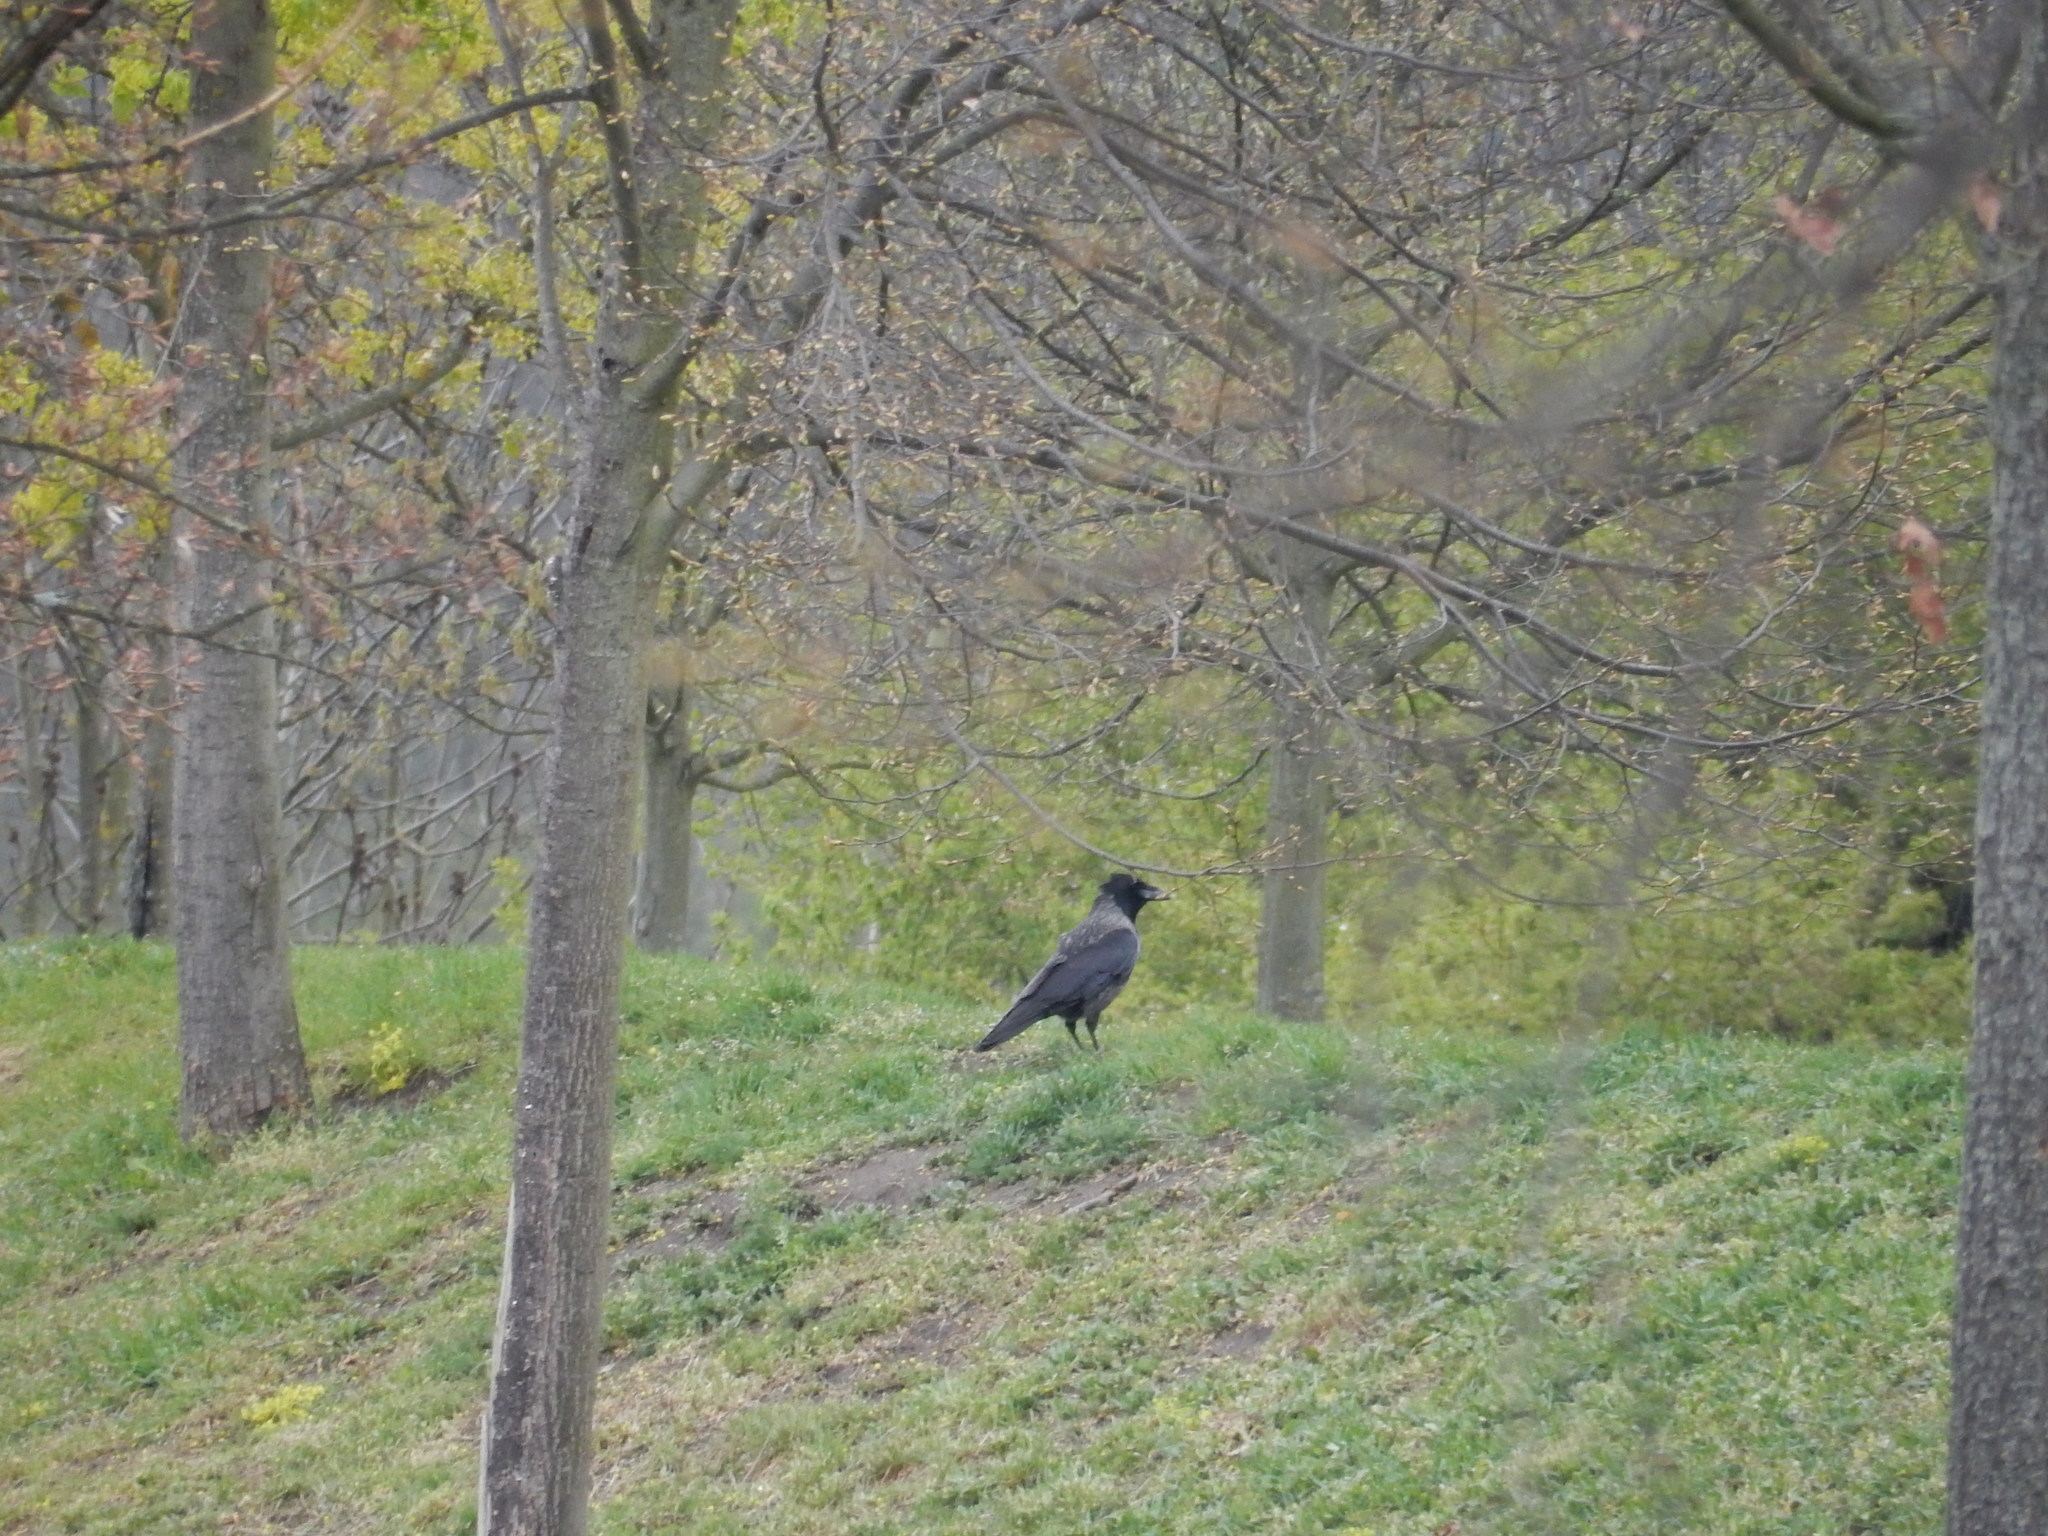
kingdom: Animalia
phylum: Chordata
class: Aves
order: Passeriformes
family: Corvidae
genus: Corvus
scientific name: Corvus cornix
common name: Hooded crow
